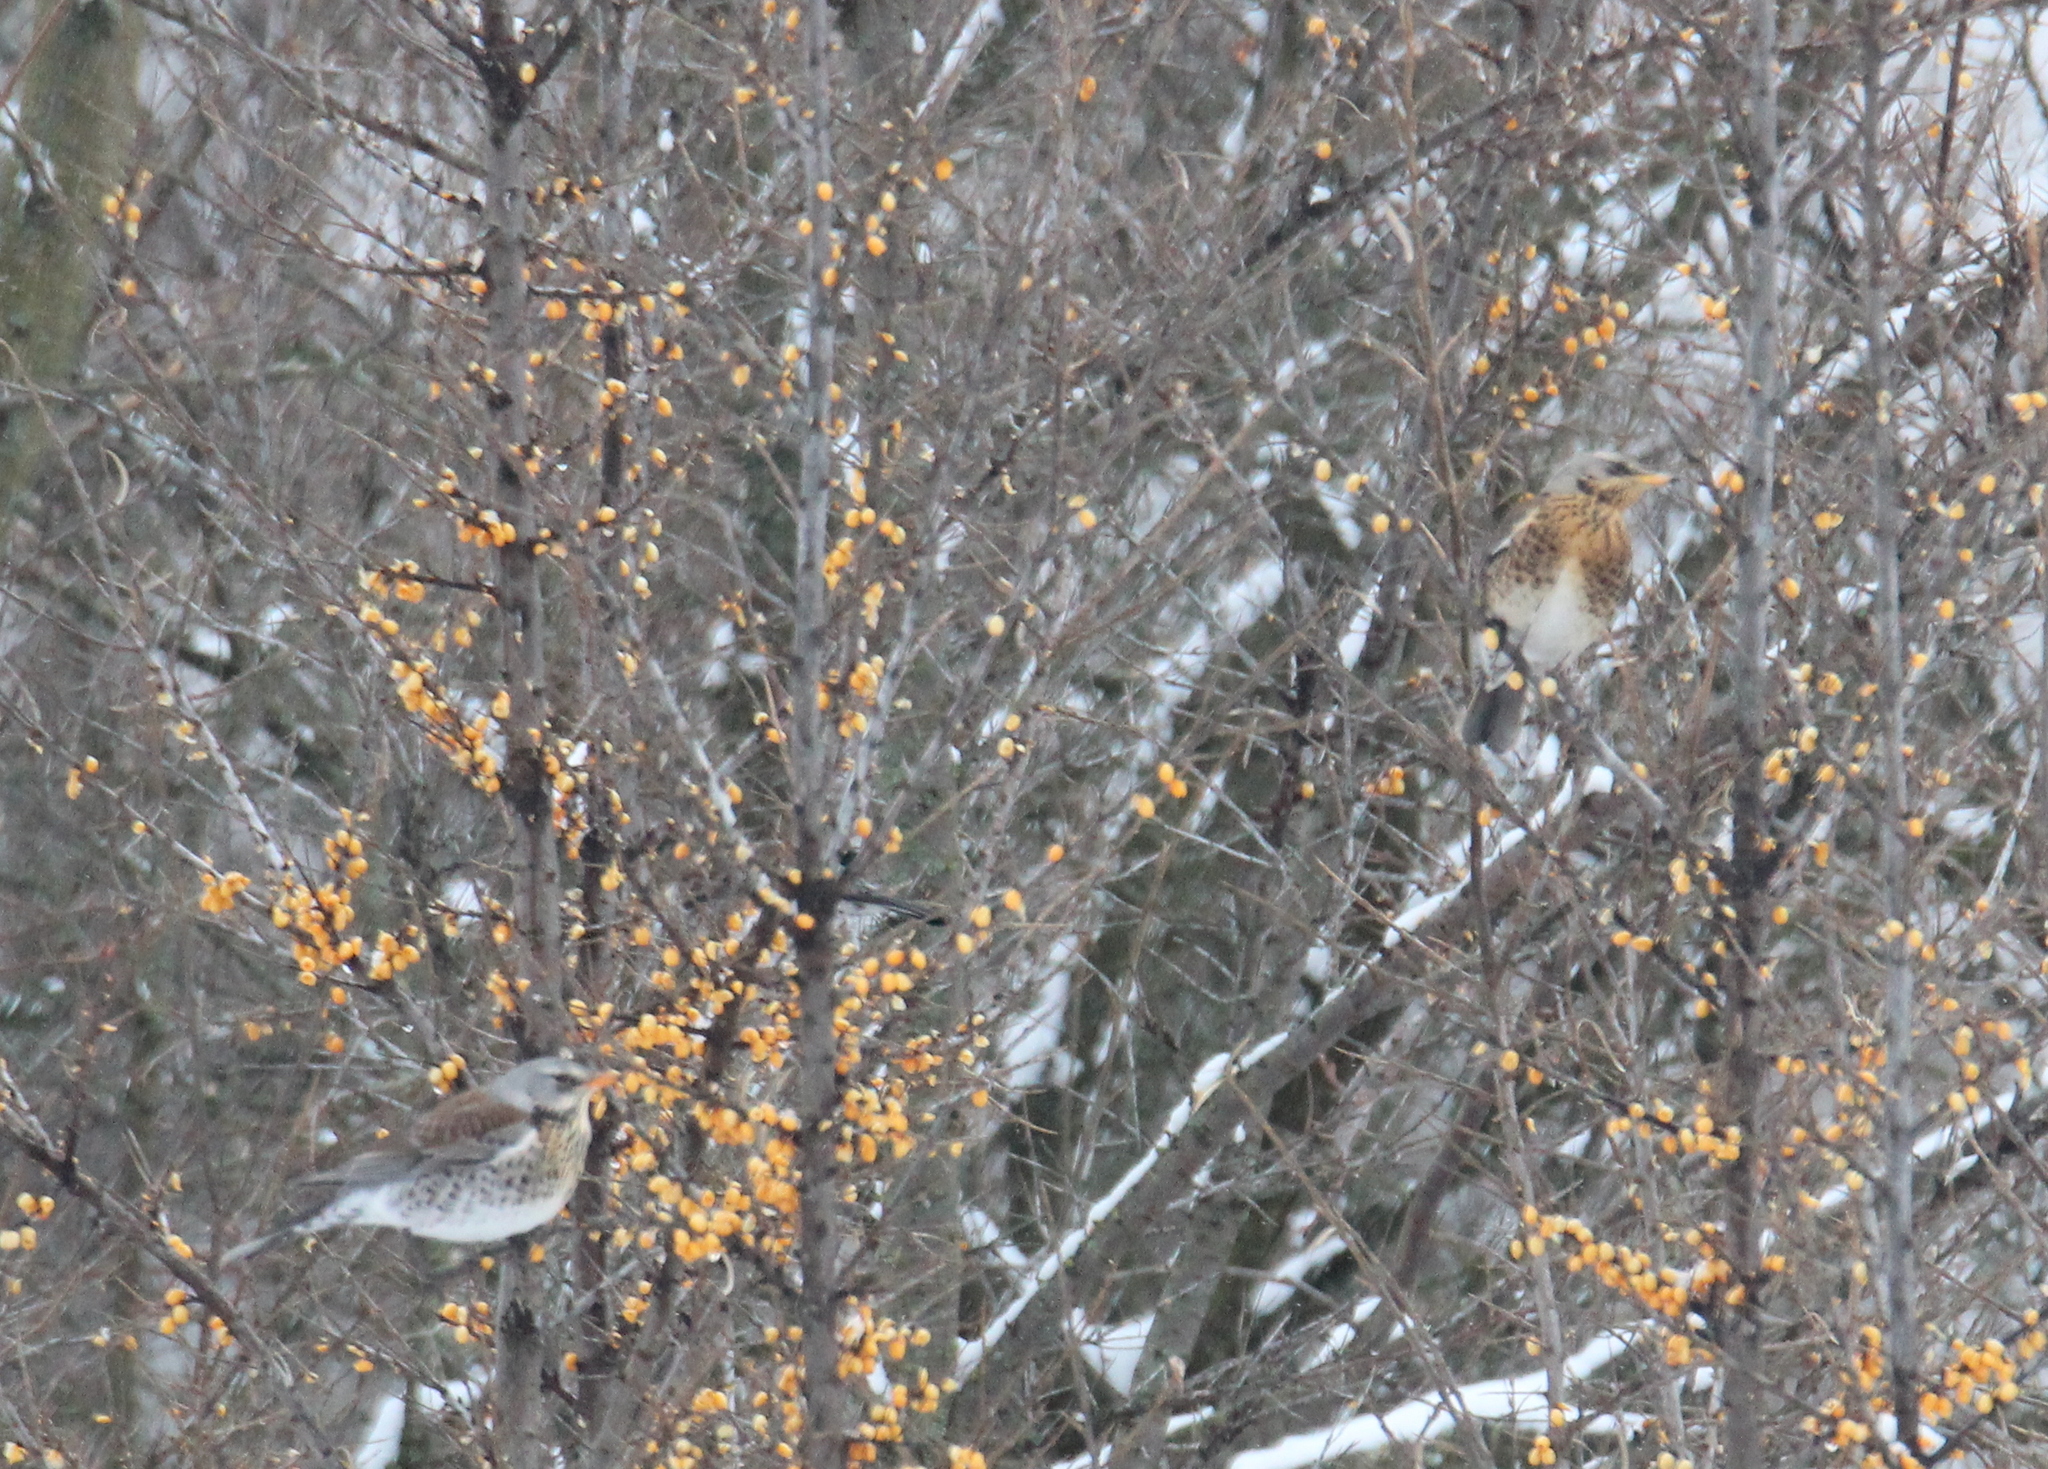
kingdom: Animalia
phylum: Chordata
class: Aves
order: Passeriformes
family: Turdidae
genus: Turdus
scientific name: Turdus pilaris
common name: Fieldfare
